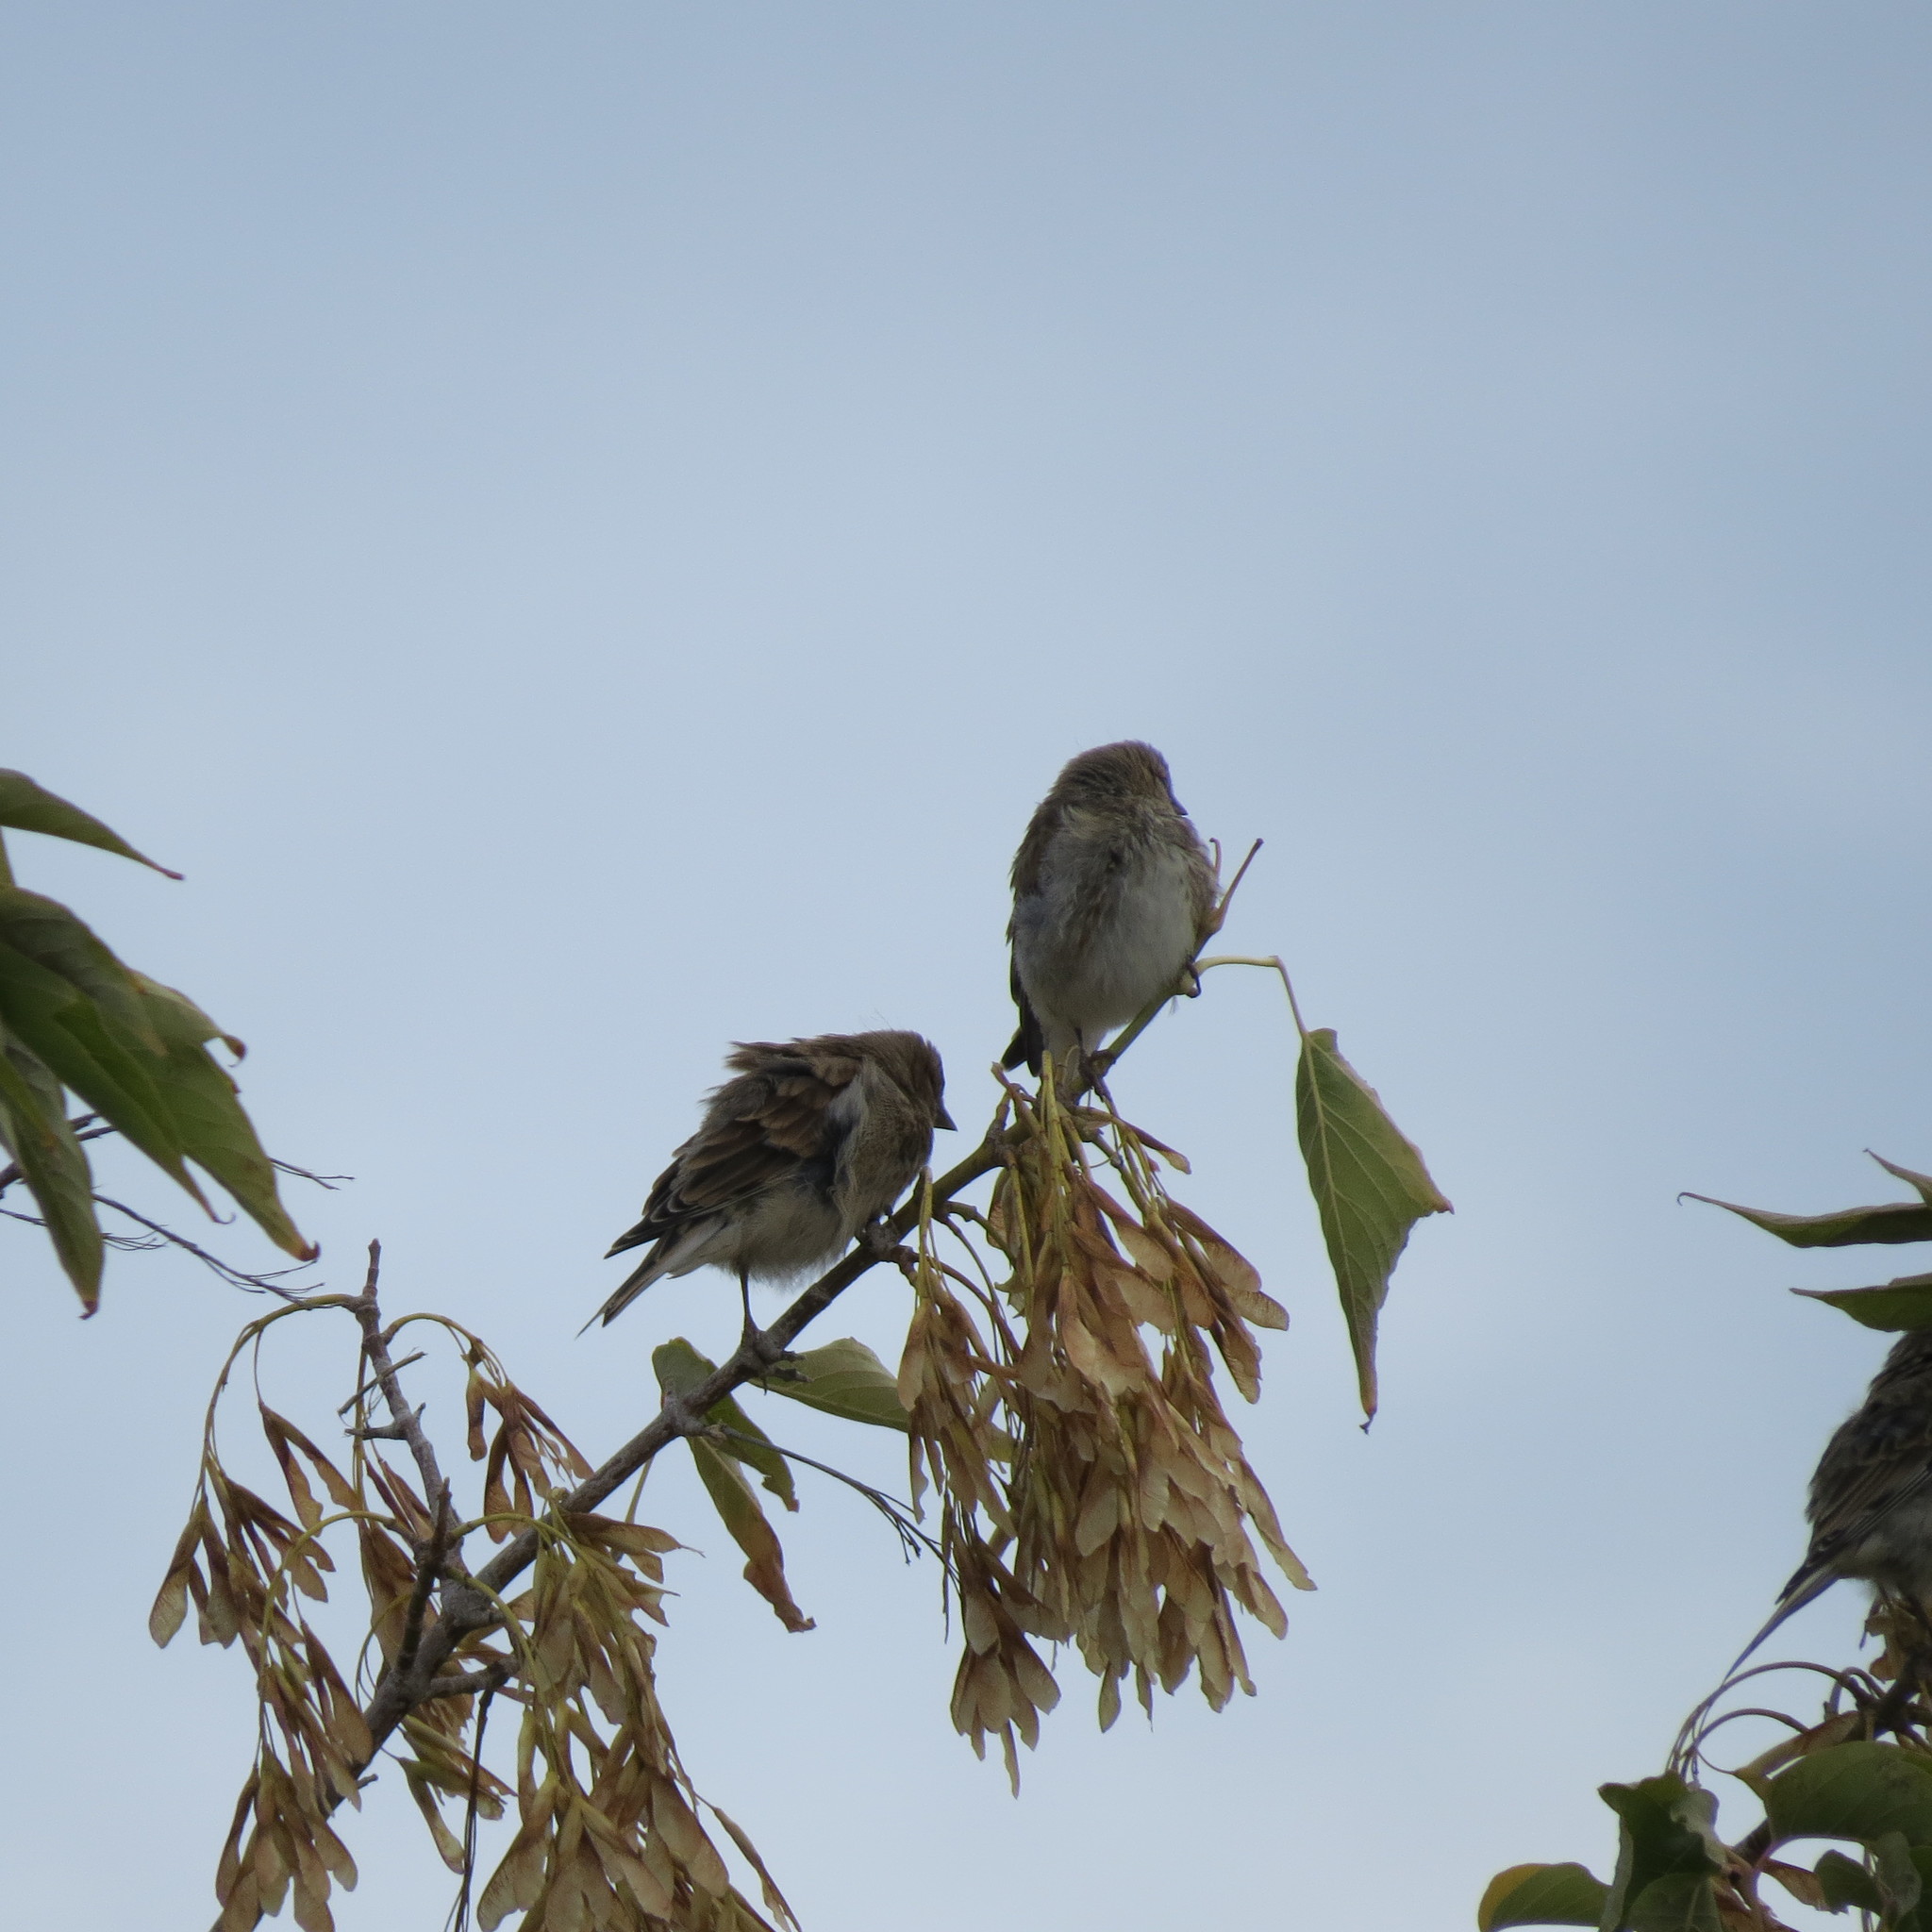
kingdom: Animalia
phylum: Chordata
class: Aves
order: Passeriformes
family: Fringillidae
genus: Linaria
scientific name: Linaria cannabina
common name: Common linnet
